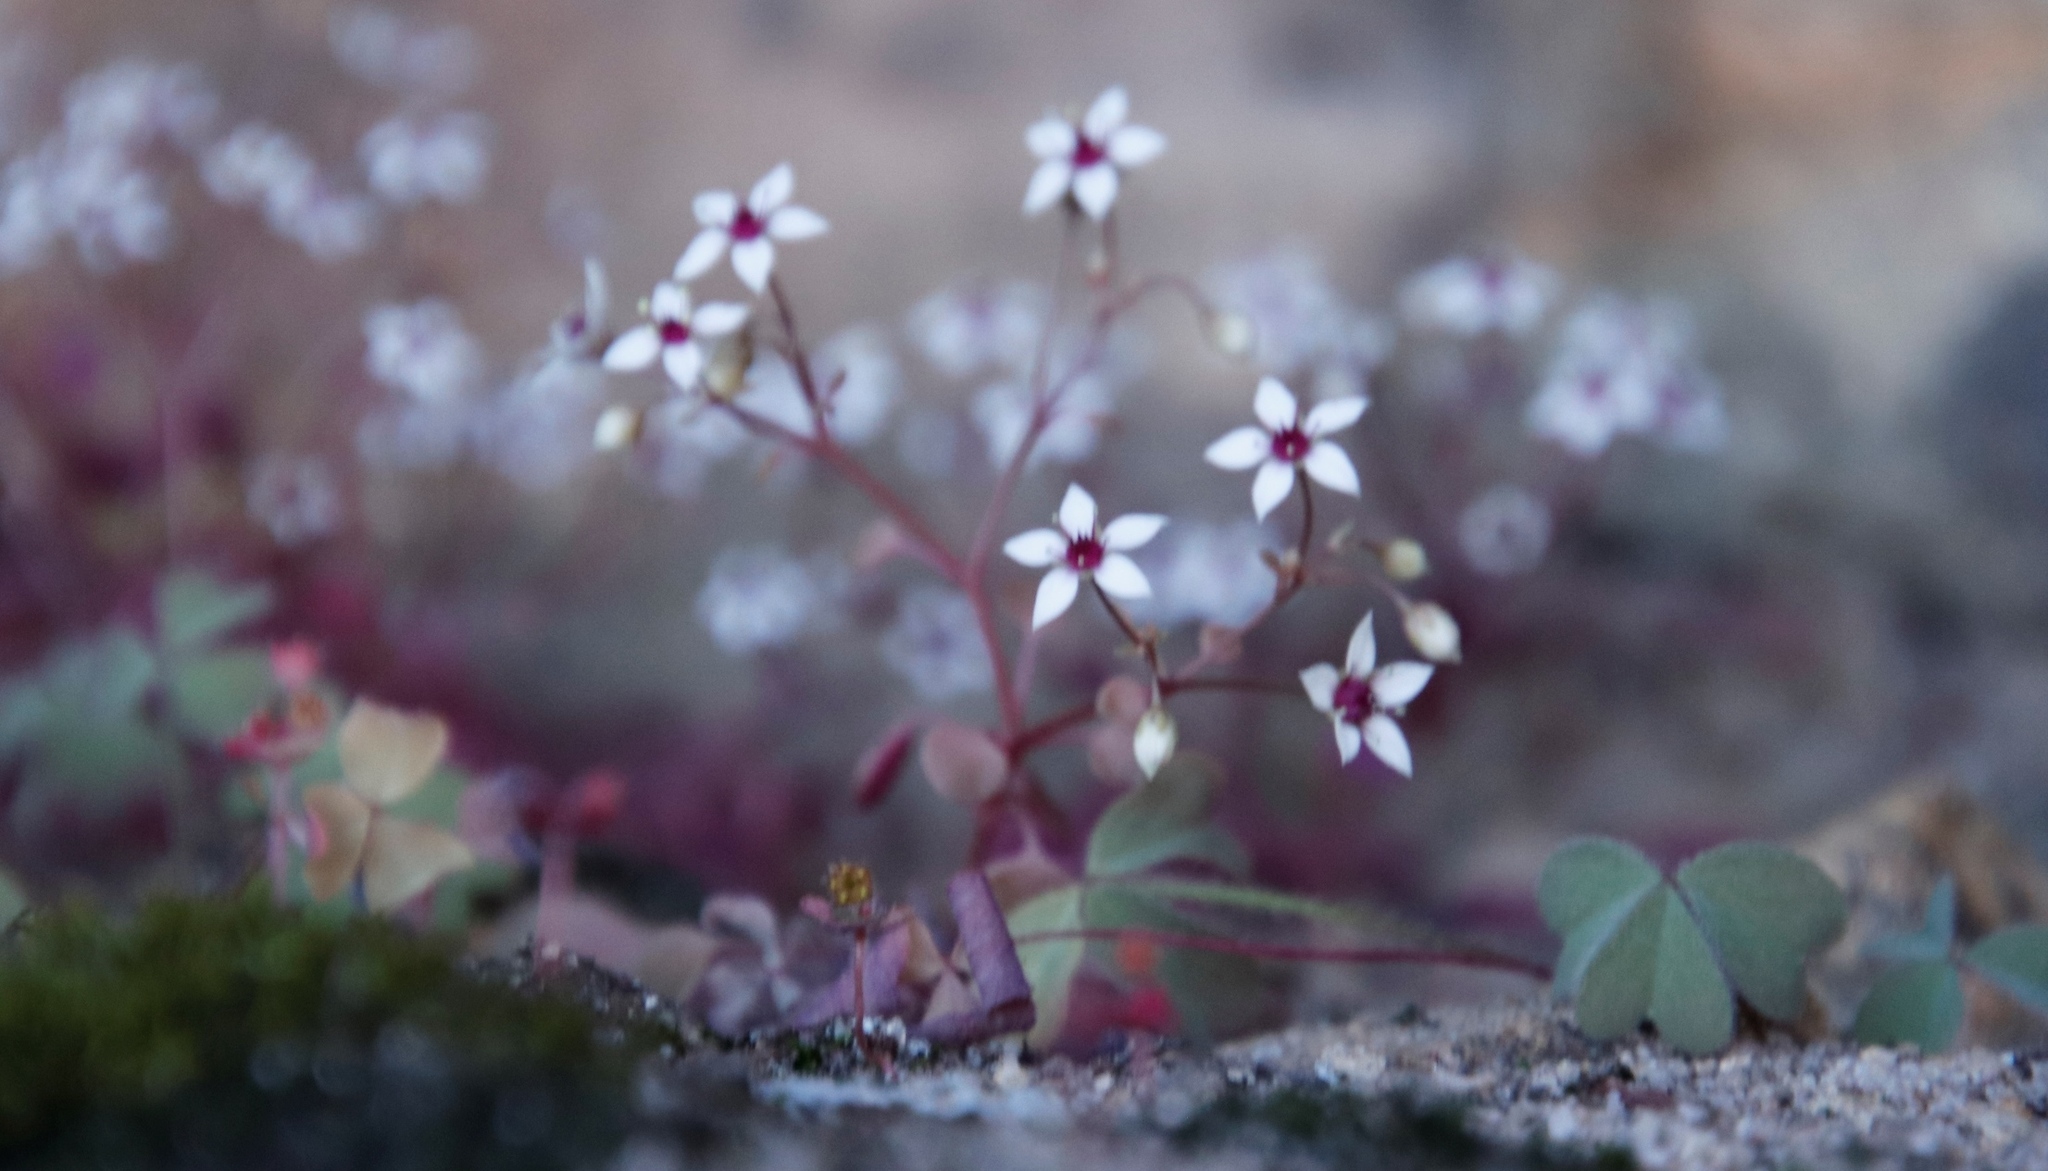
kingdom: Plantae
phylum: Tracheophyta
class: Magnoliopsida
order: Saxifragales
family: Crassulaceae
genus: Crassula
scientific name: Crassula dentata
